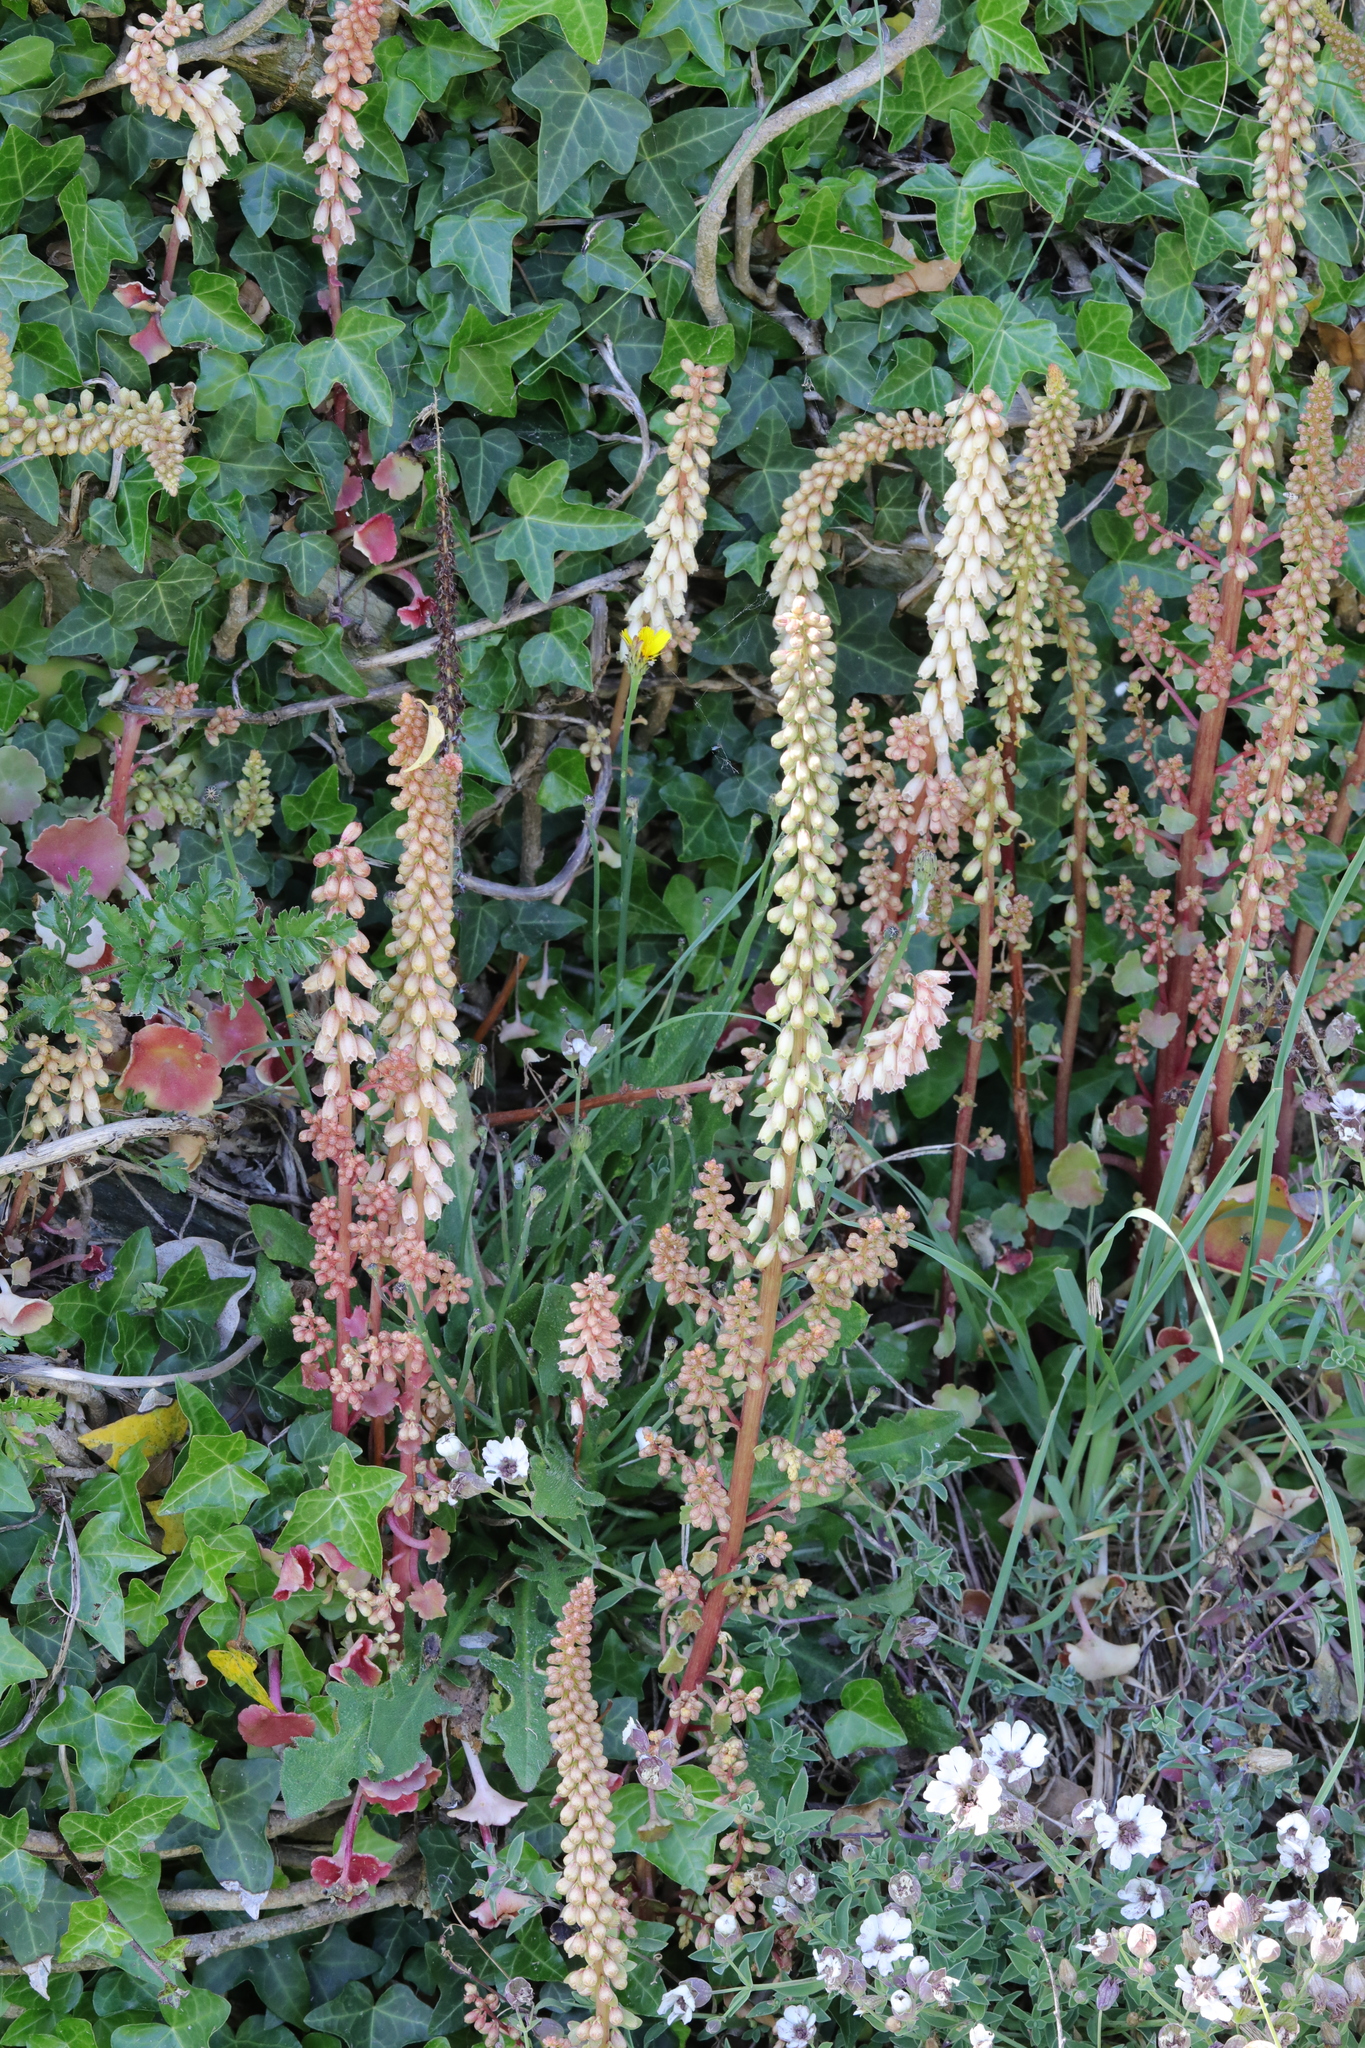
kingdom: Plantae
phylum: Tracheophyta
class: Magnoliopsida
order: Saxifragales
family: Crassulaceae
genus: Umbilicus
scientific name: Umbilicus rupestris
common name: Navelwort
